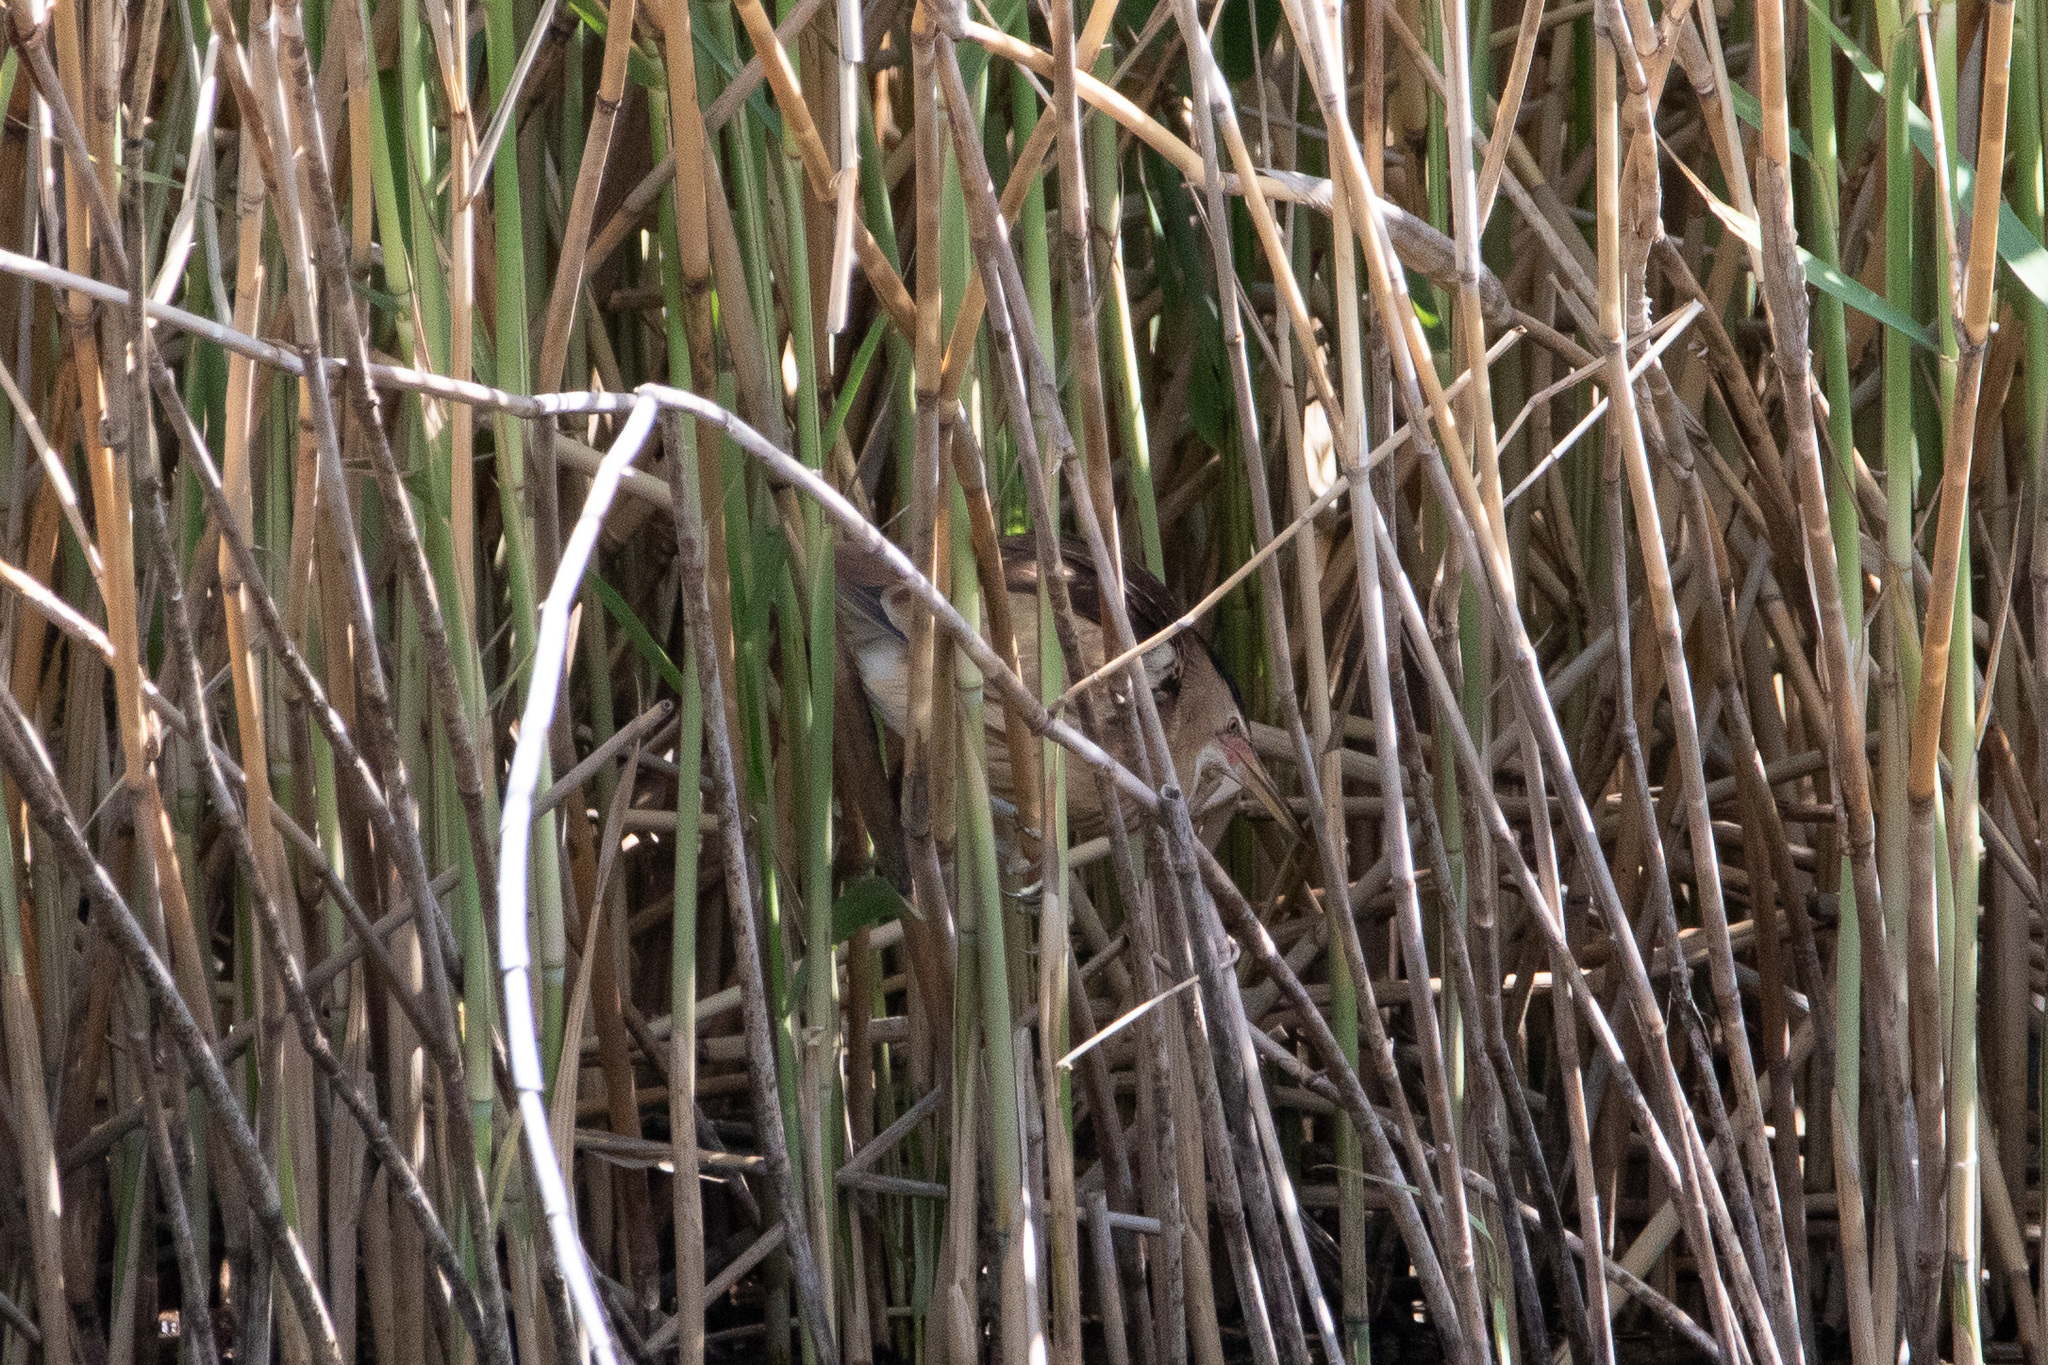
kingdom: Animalia
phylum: Chordata
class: Aves
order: Pelecaniformes
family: Ardeidae
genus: Ixobrychus
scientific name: Ixobrychus minutus
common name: Little bittern
